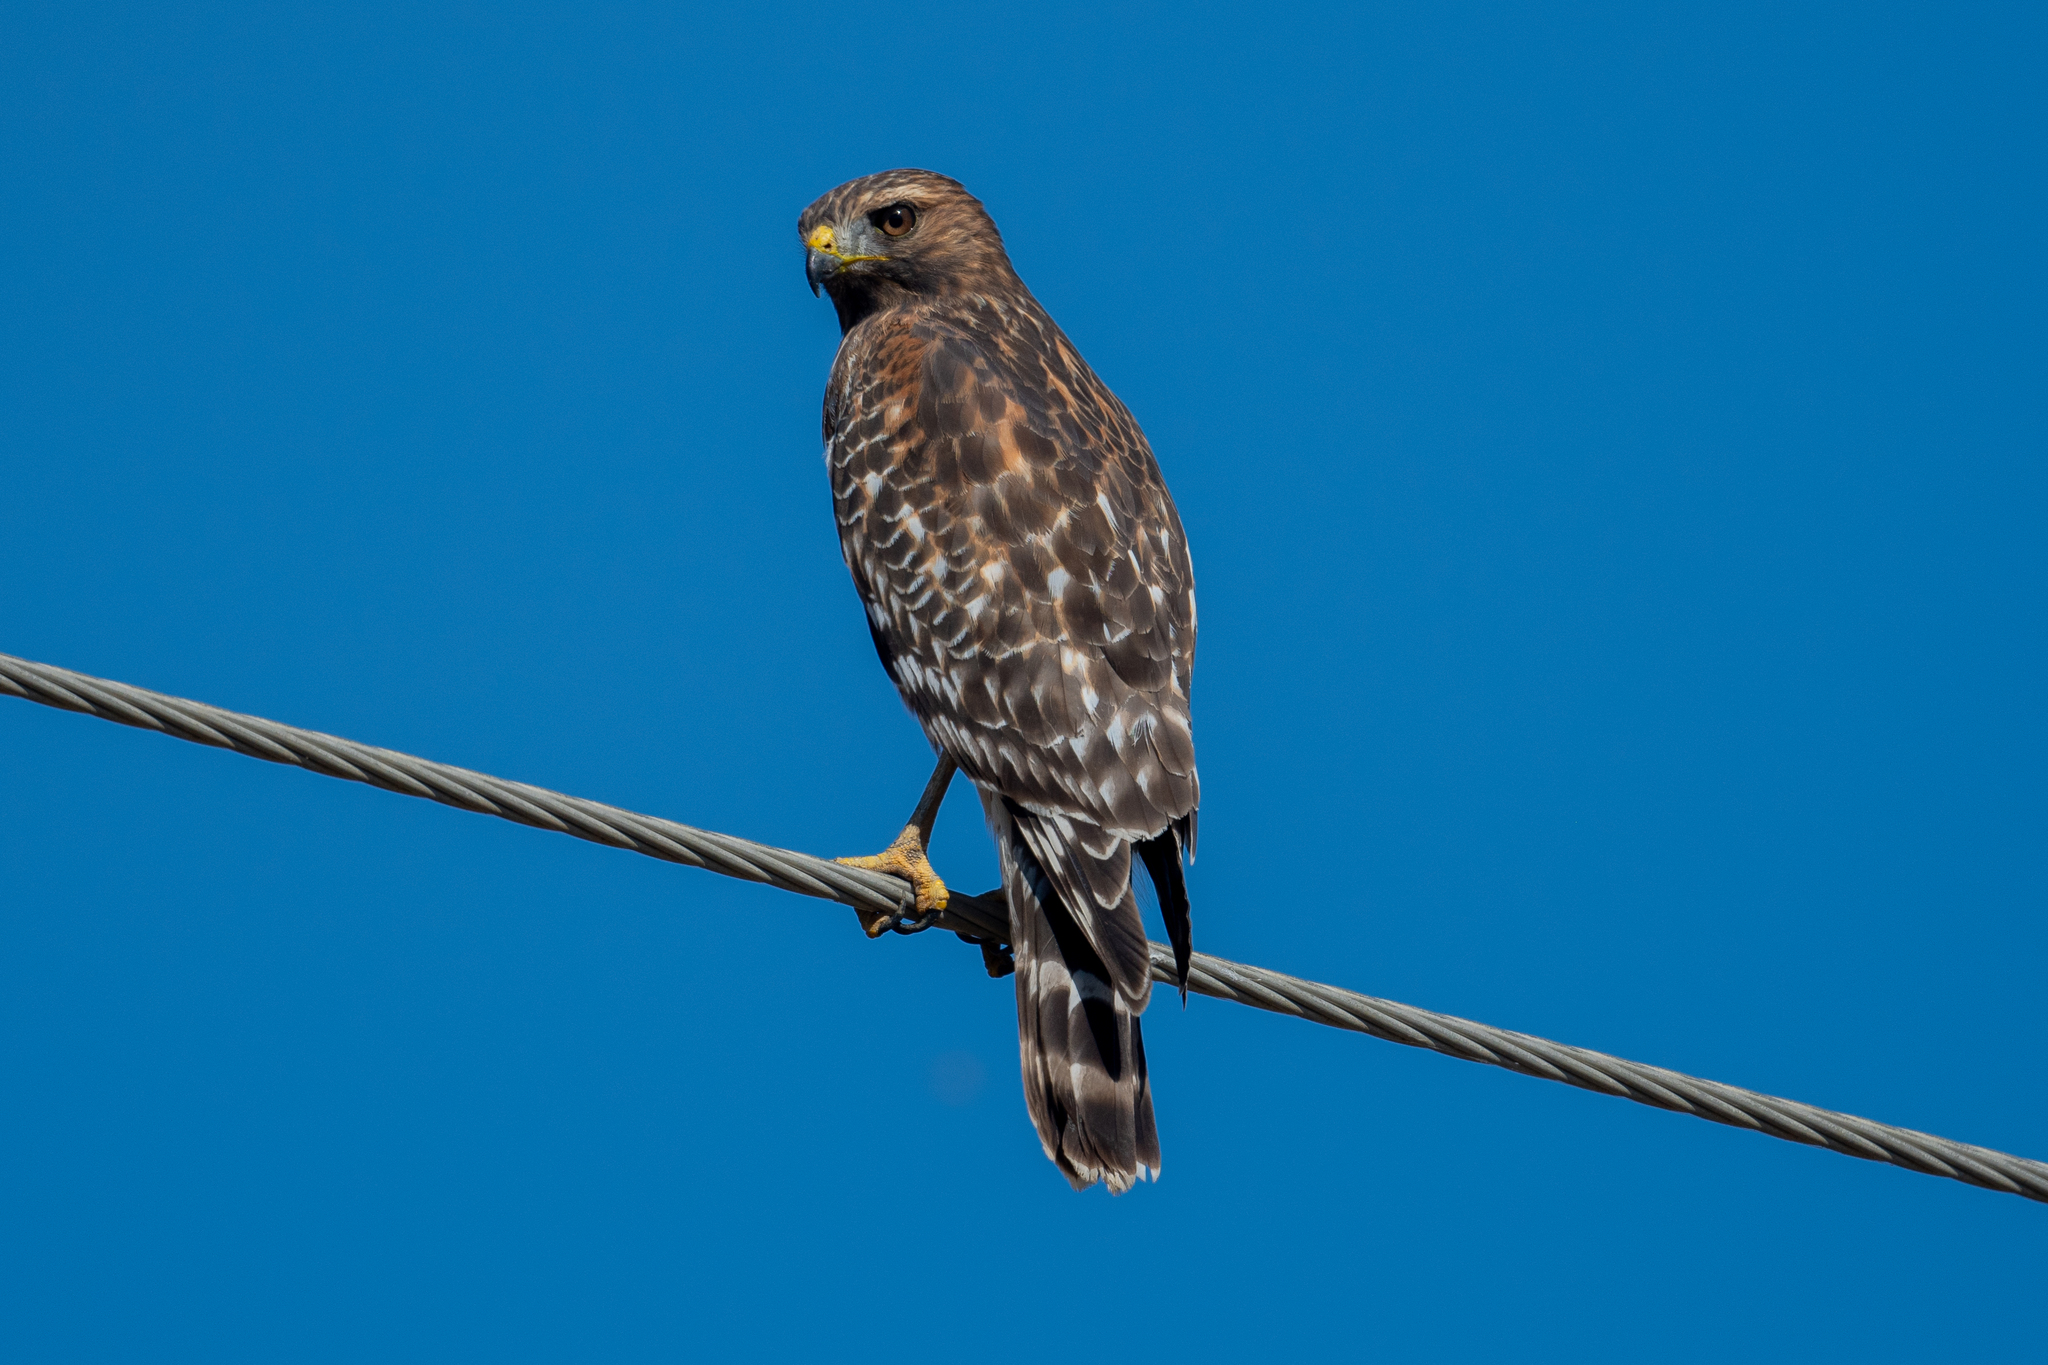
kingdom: Animalia
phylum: Chordata
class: Aves
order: Accipitriformes
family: Accipitridae
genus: Buteo
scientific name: Buteo lineatus
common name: Red-shouldered hawk
